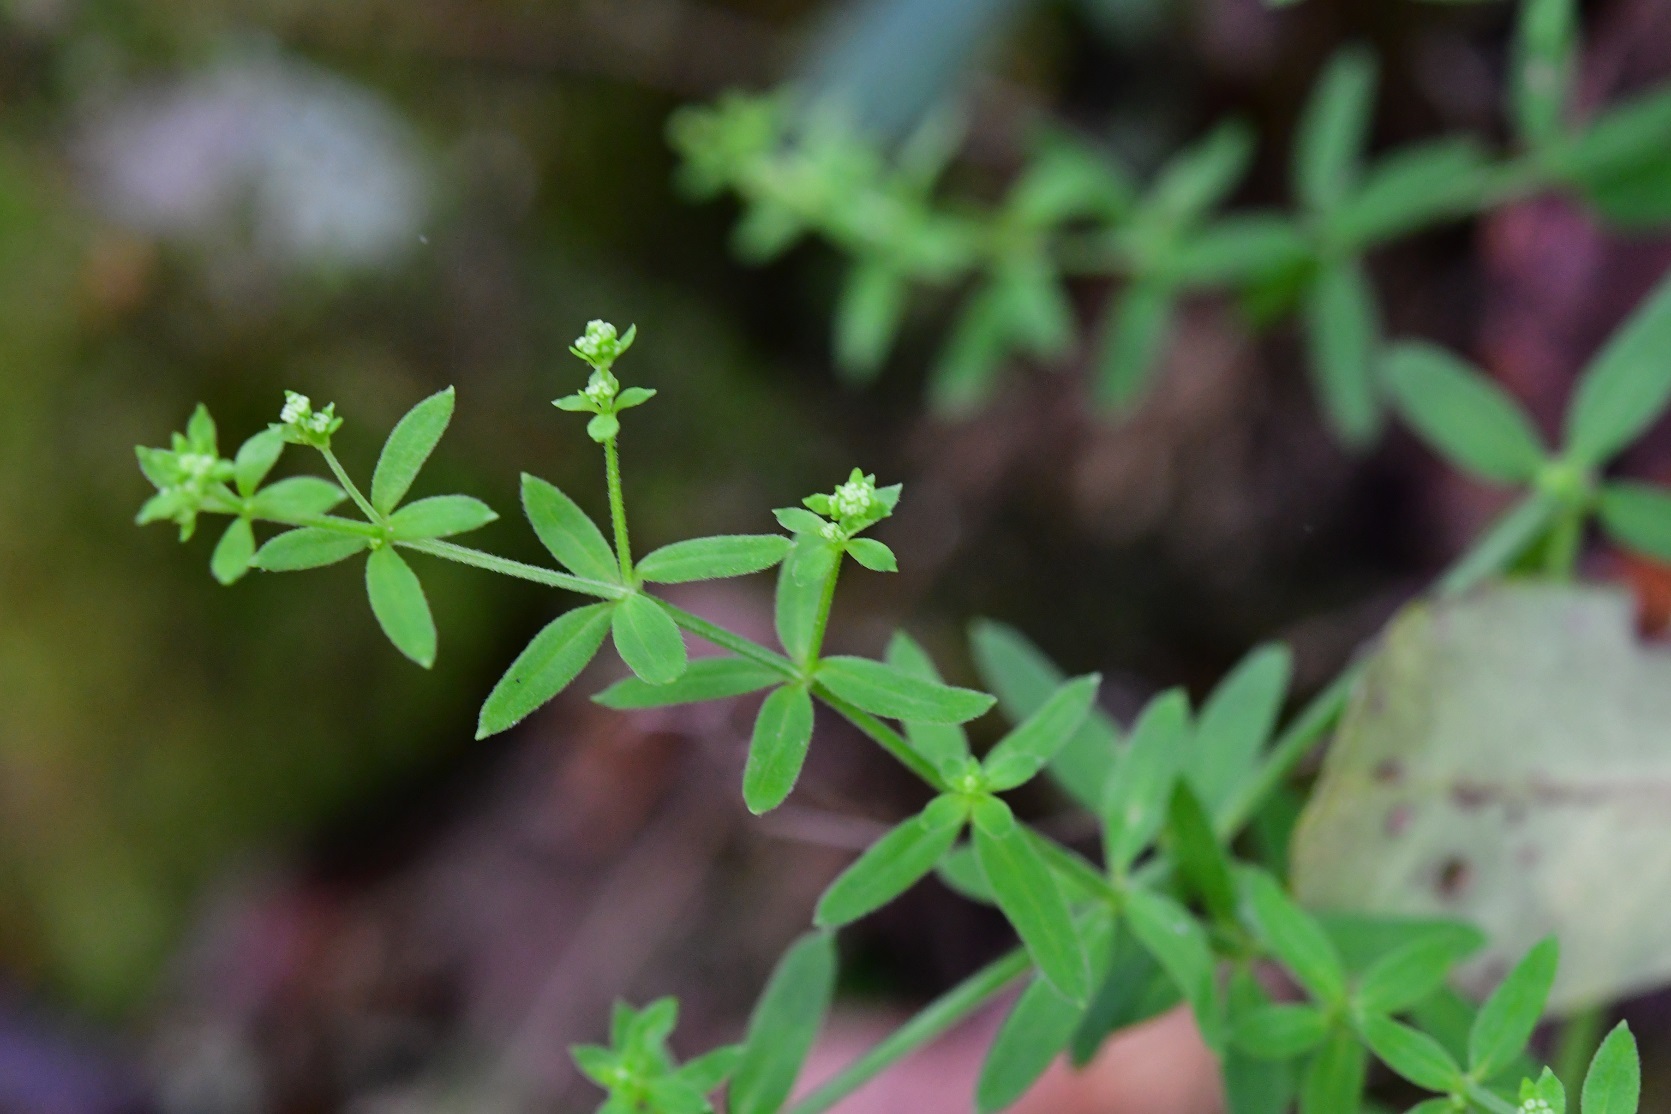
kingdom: Plantae
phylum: Tracheophyta
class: Magnoliopsida
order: Gentianales
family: Rubiaceae
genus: Galium
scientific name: Galium aschenbornii
